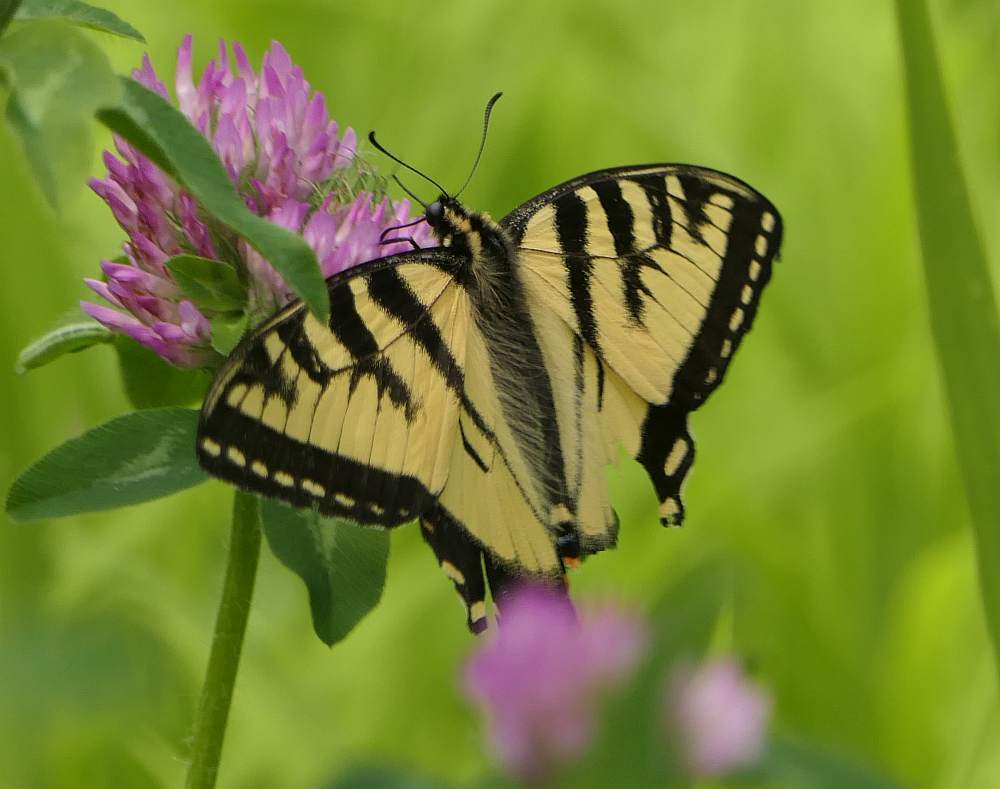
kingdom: Animalia
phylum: Arthropoda
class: Insecta
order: Lepidoptera
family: Papilionidae
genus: Papilio
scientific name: Papilio canadensis
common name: Canadian tiger swallowtail
